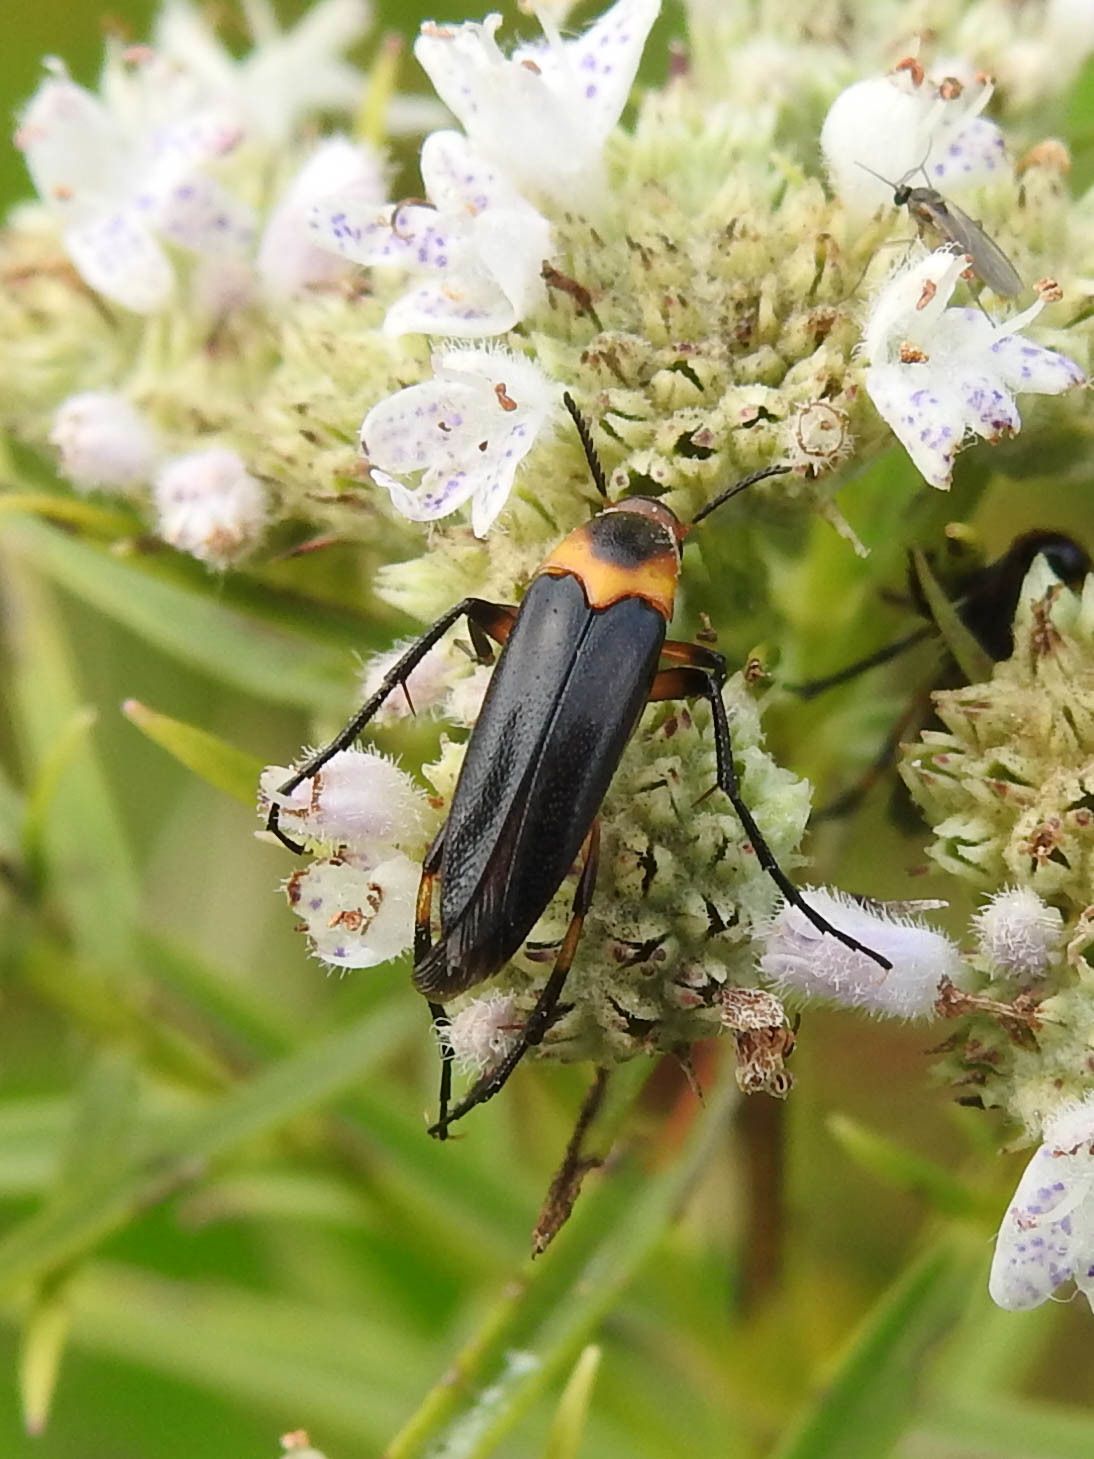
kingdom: Animalia
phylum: Arthropoda
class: Insecta
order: Coleoptera
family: Ripiphoridae
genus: Macrosiagon
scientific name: Macrosiagon limbatum
